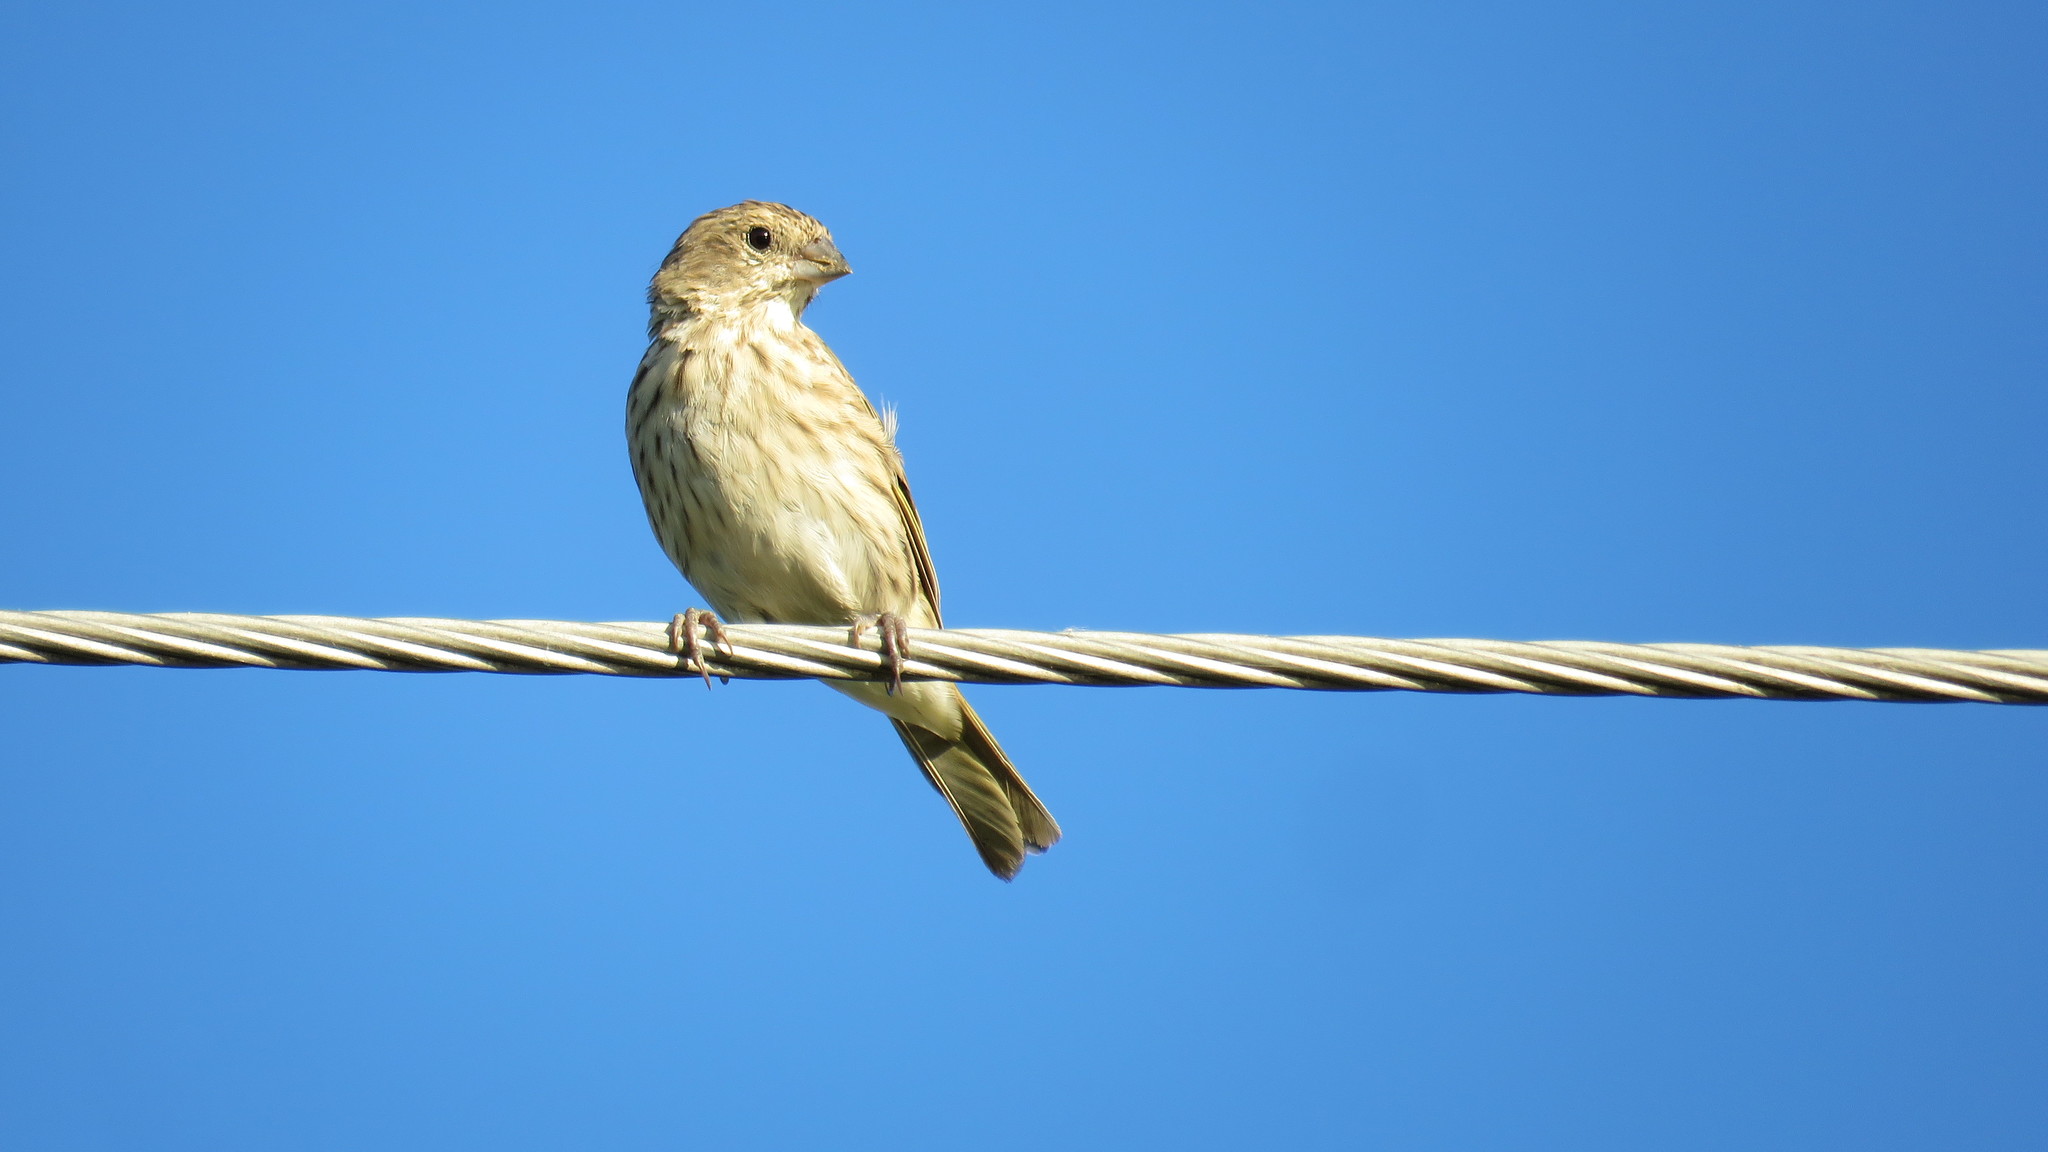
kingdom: Animalia
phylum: Chordata
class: Aves
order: Passeriformes
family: Thraupidae
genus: Sicalis
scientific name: Sicalis flaveola
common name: Saffron finch
